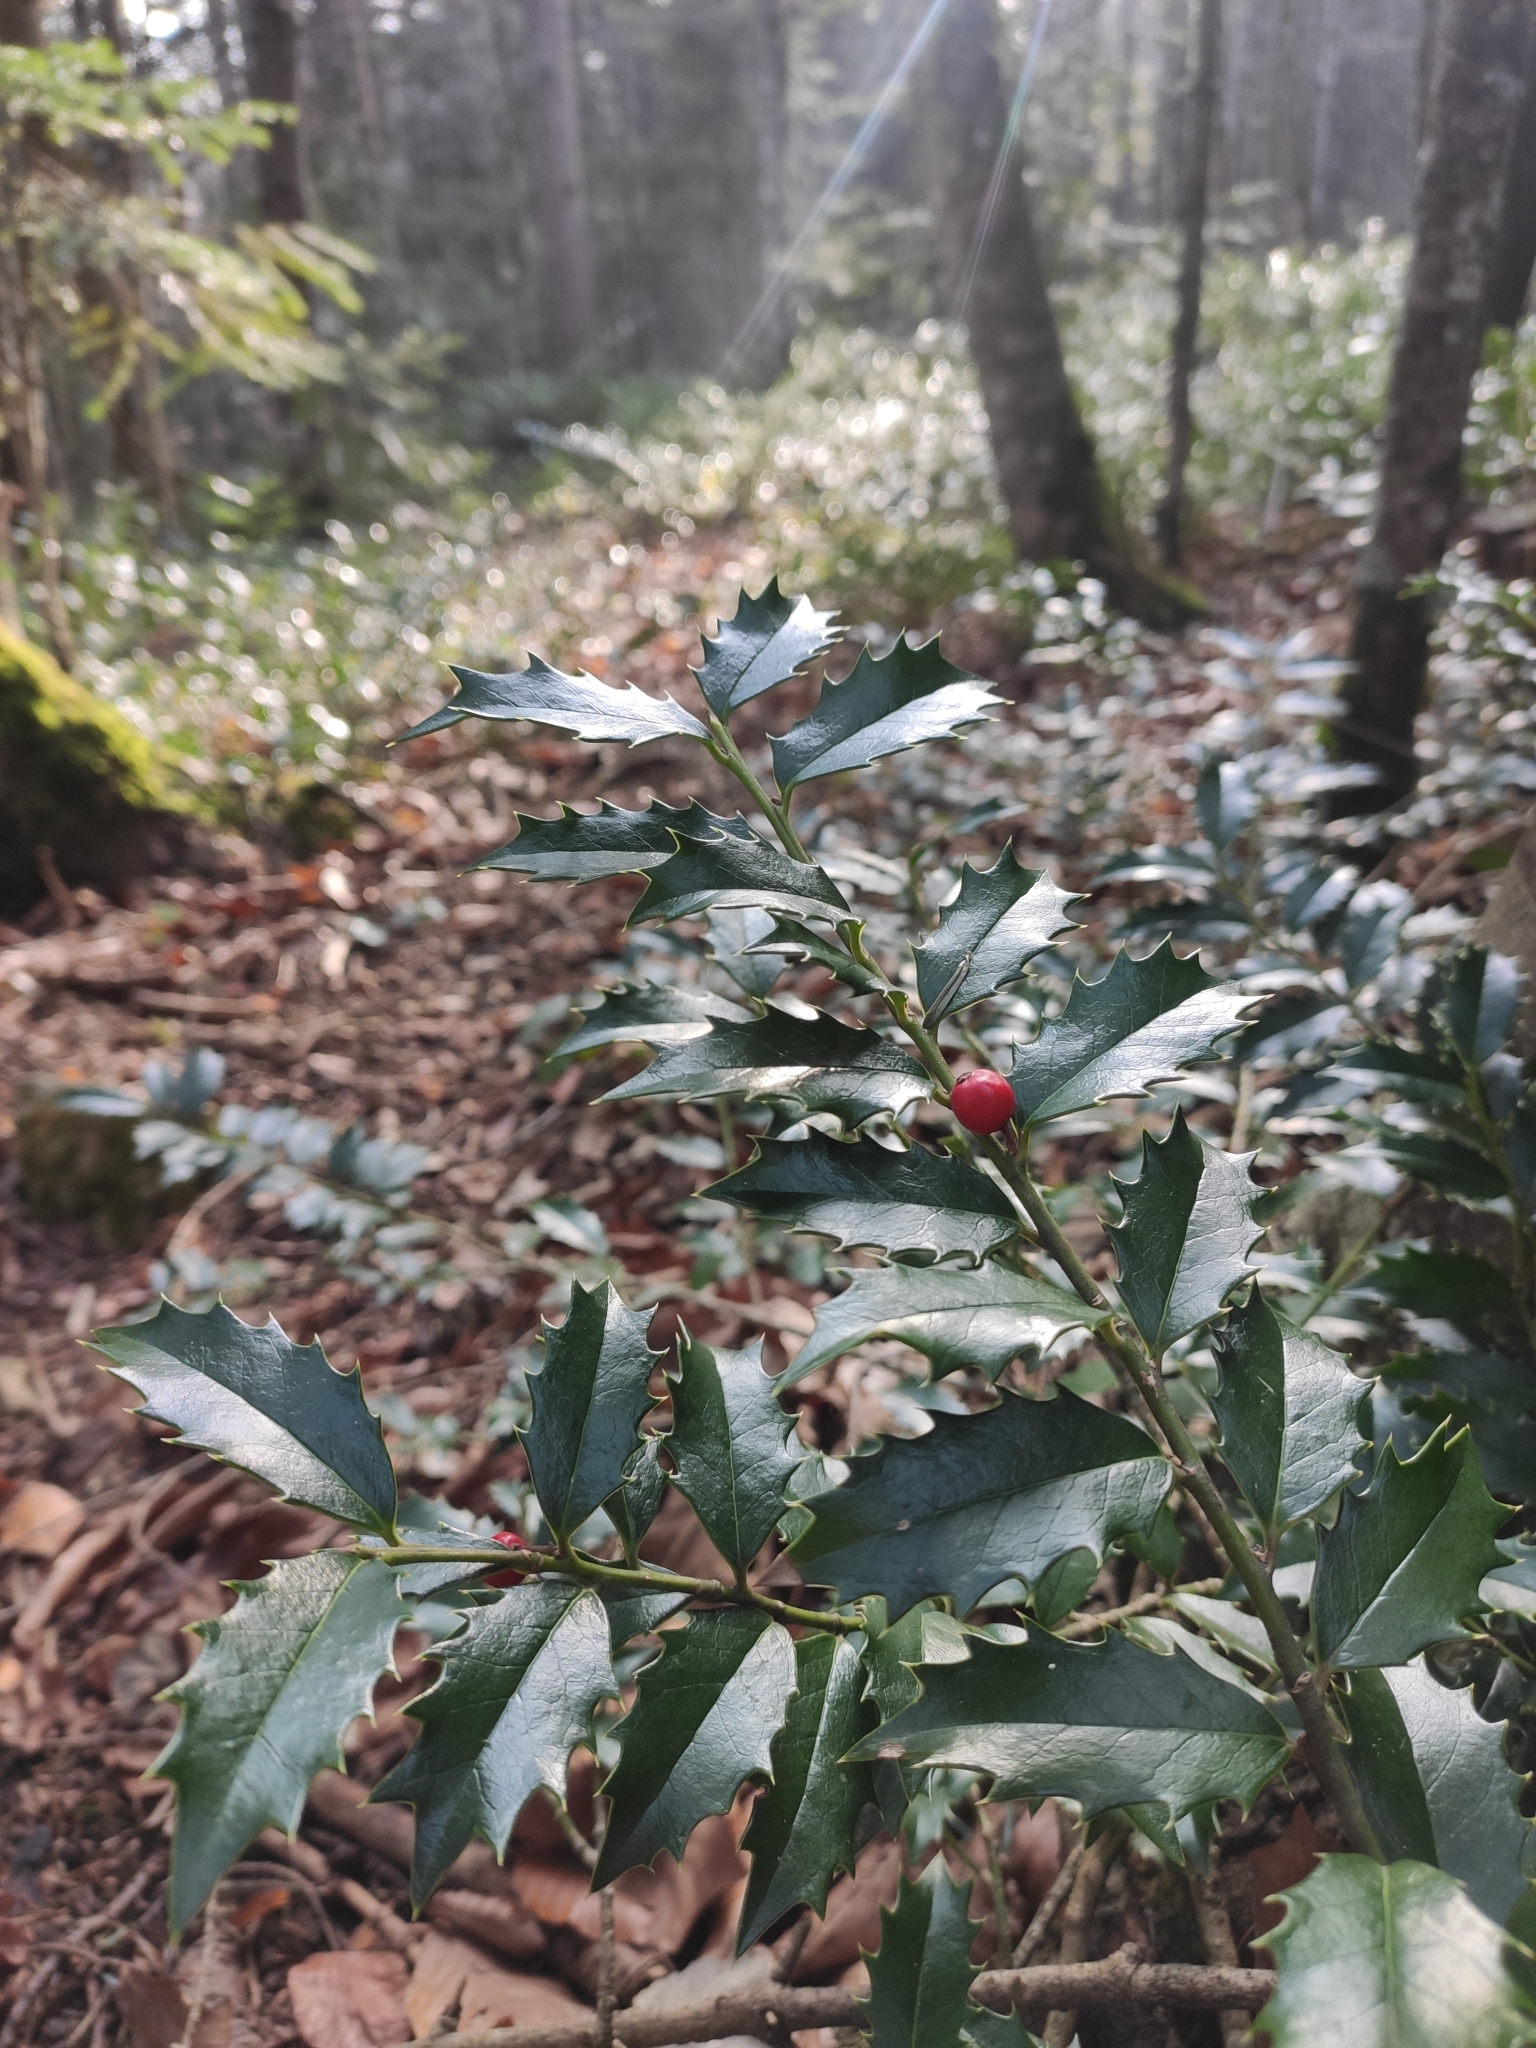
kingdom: Plantae
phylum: Tracheophyta
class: Magnoliopsida
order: Aquifoliales
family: Aquifoliaceae
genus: Ilex
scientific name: Ilex colchica
